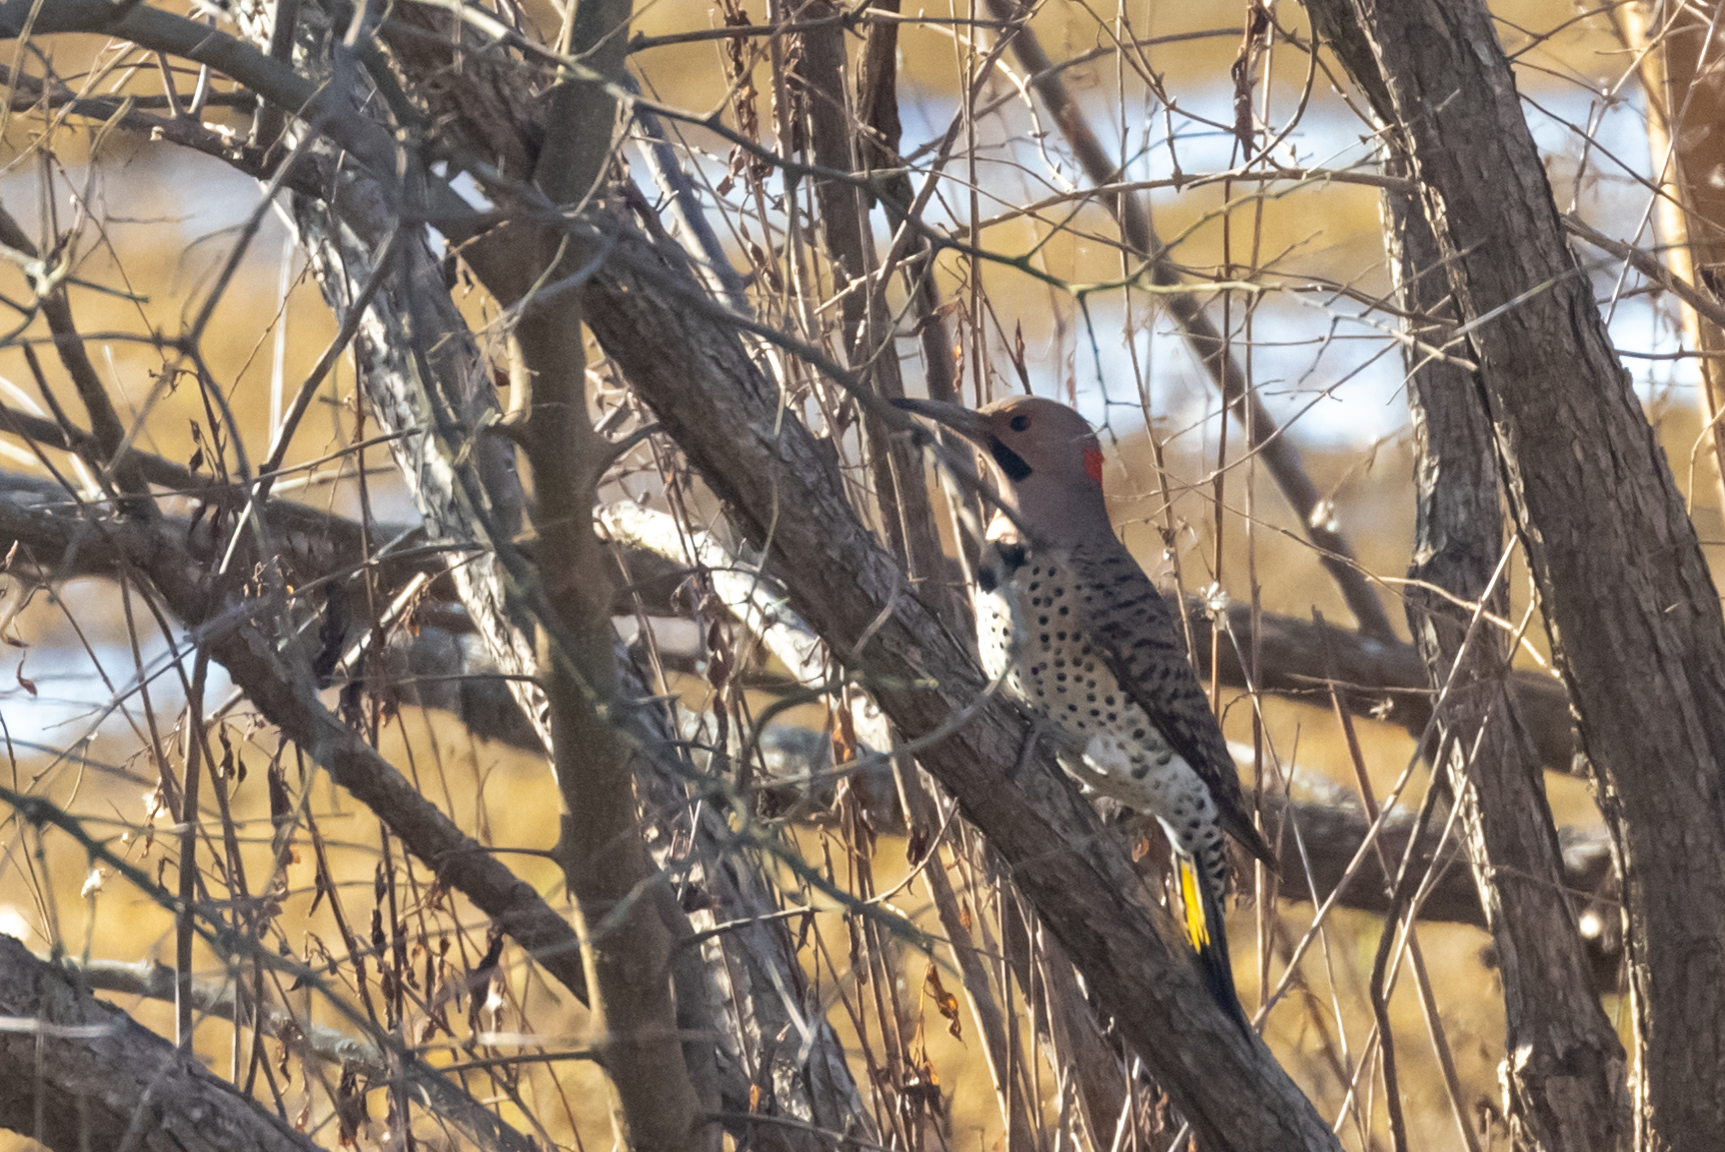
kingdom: Animalia
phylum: Chordata
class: Aves
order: Piciformes
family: Picidae
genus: Colaptes
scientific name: Colaptes auratus
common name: Northern flicker
